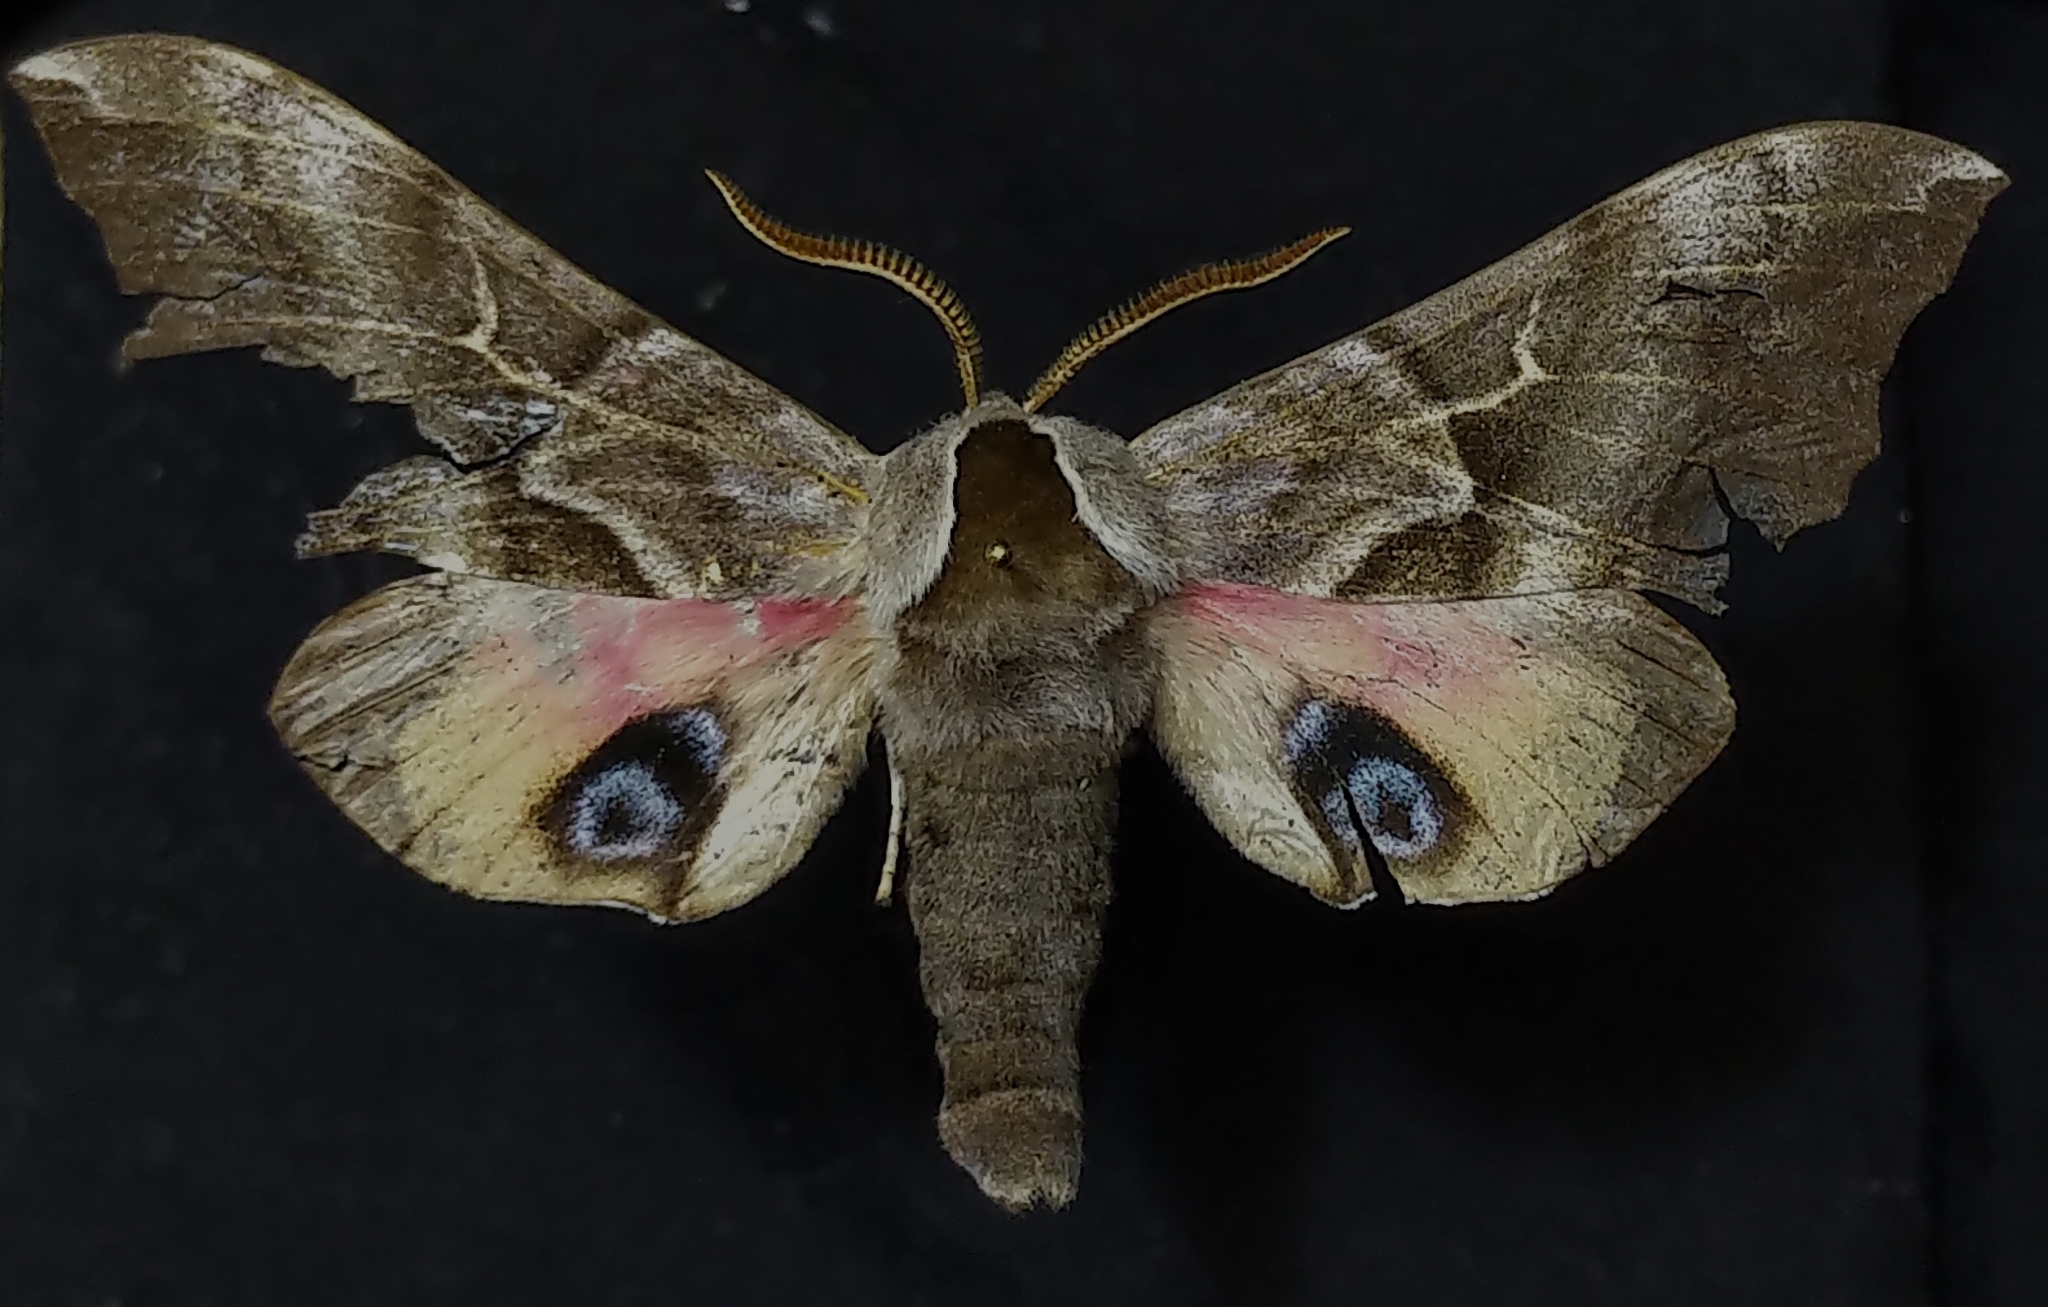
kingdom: Animalia
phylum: Arthropoda
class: Insecta
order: Lepidoptera
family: Sphingidae
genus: Smerinthus
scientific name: Smerinthus cerisyi
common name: Cerisy's sphinx moth
